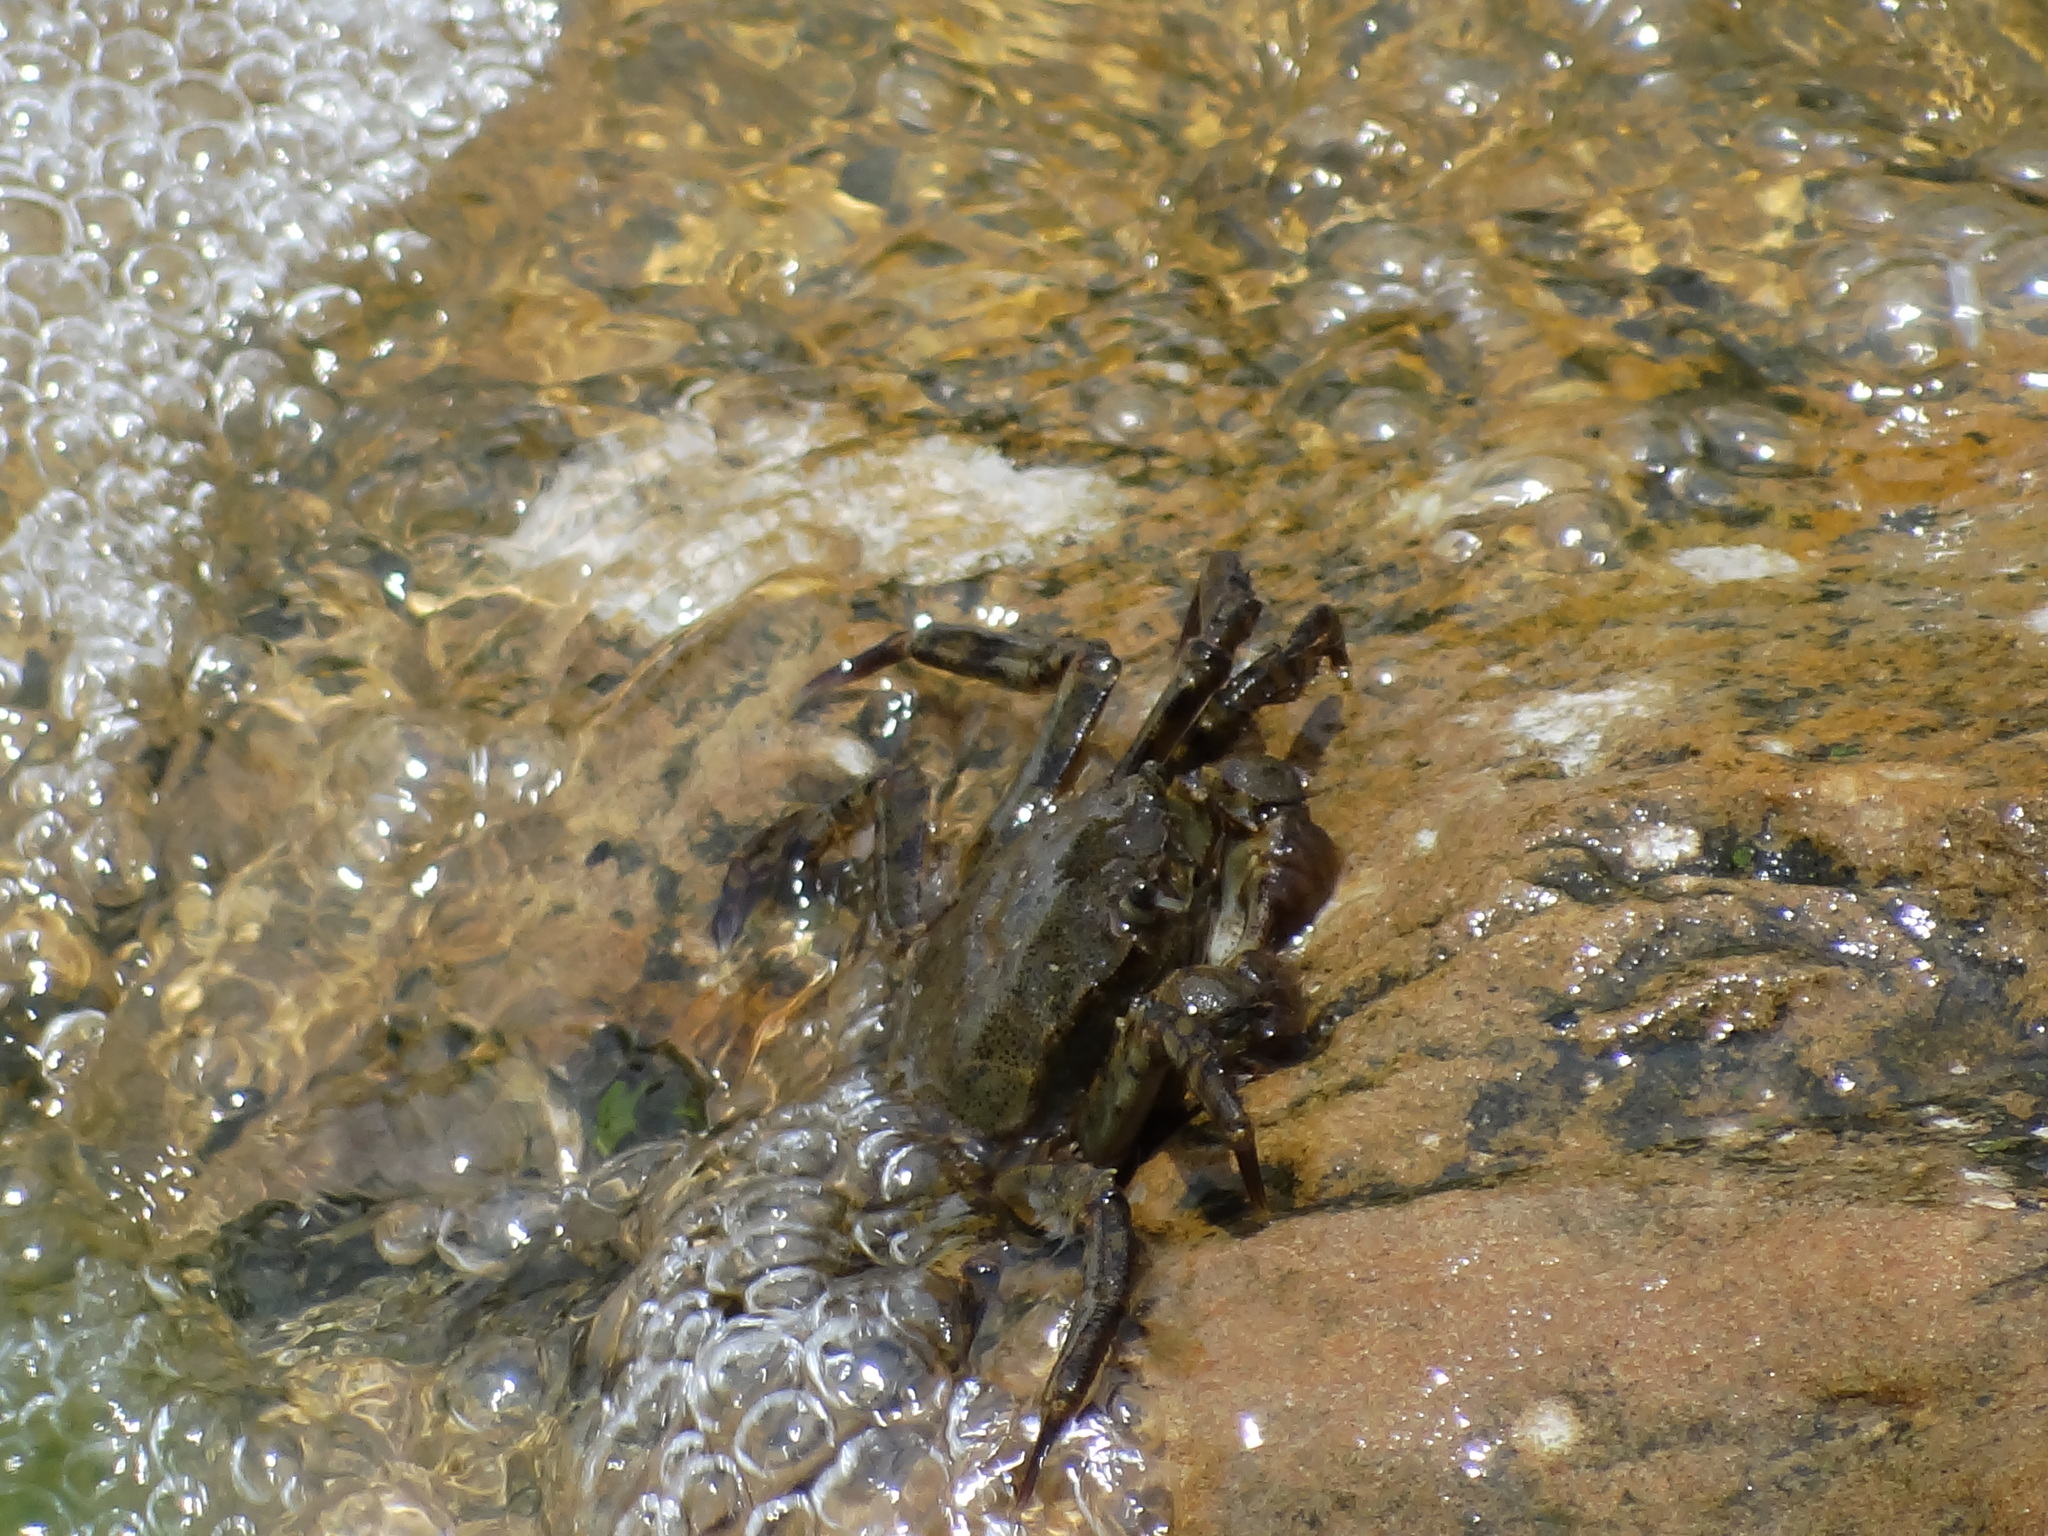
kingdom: Animalia
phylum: Arthropoda
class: Malacostraca
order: Decapoda
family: Varunidae
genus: Eriocheir
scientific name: Eriocheir japonica
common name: Japanese mitten crab
